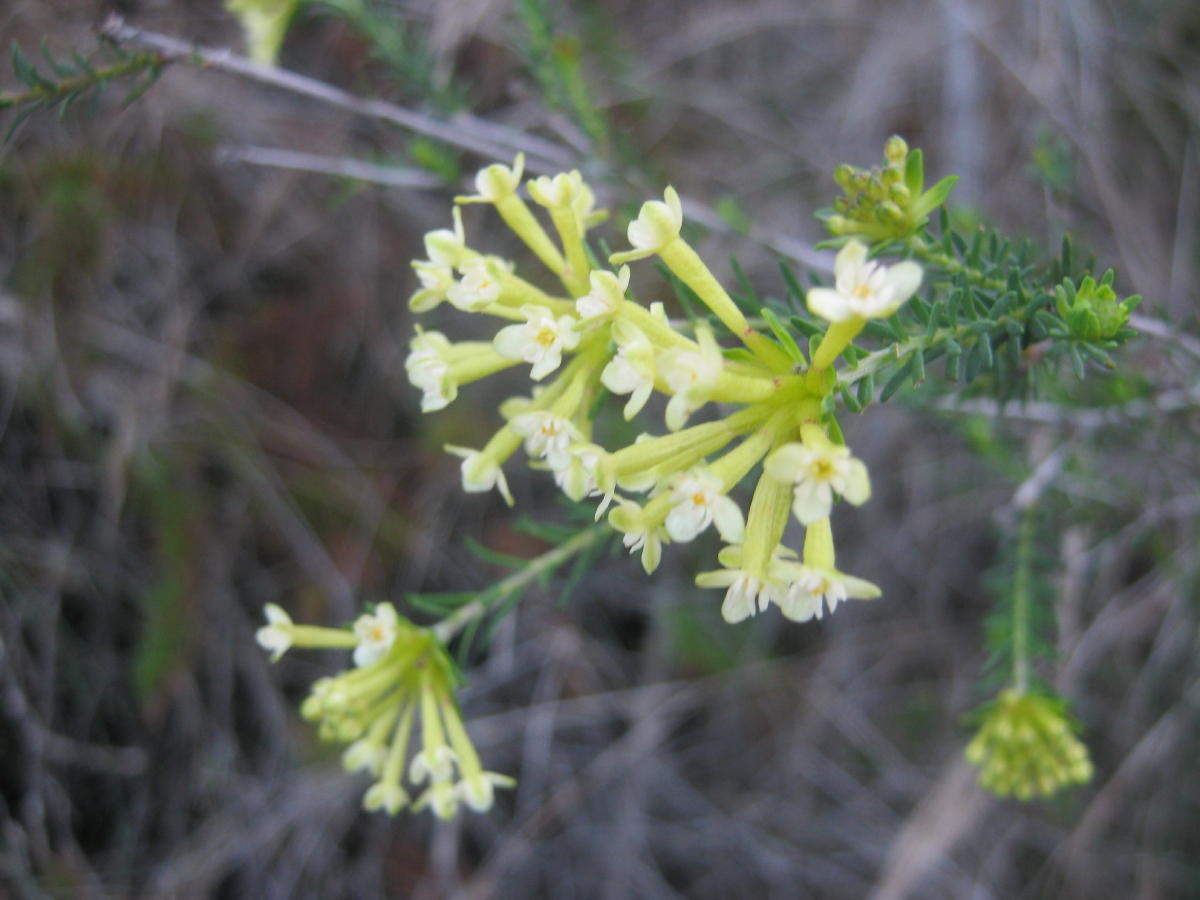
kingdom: Plantae
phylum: Tracheophyta
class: Magnoliopsida
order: Malvales
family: Thymelaeaceae
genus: Gnidia
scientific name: Gnidia squarrosa
